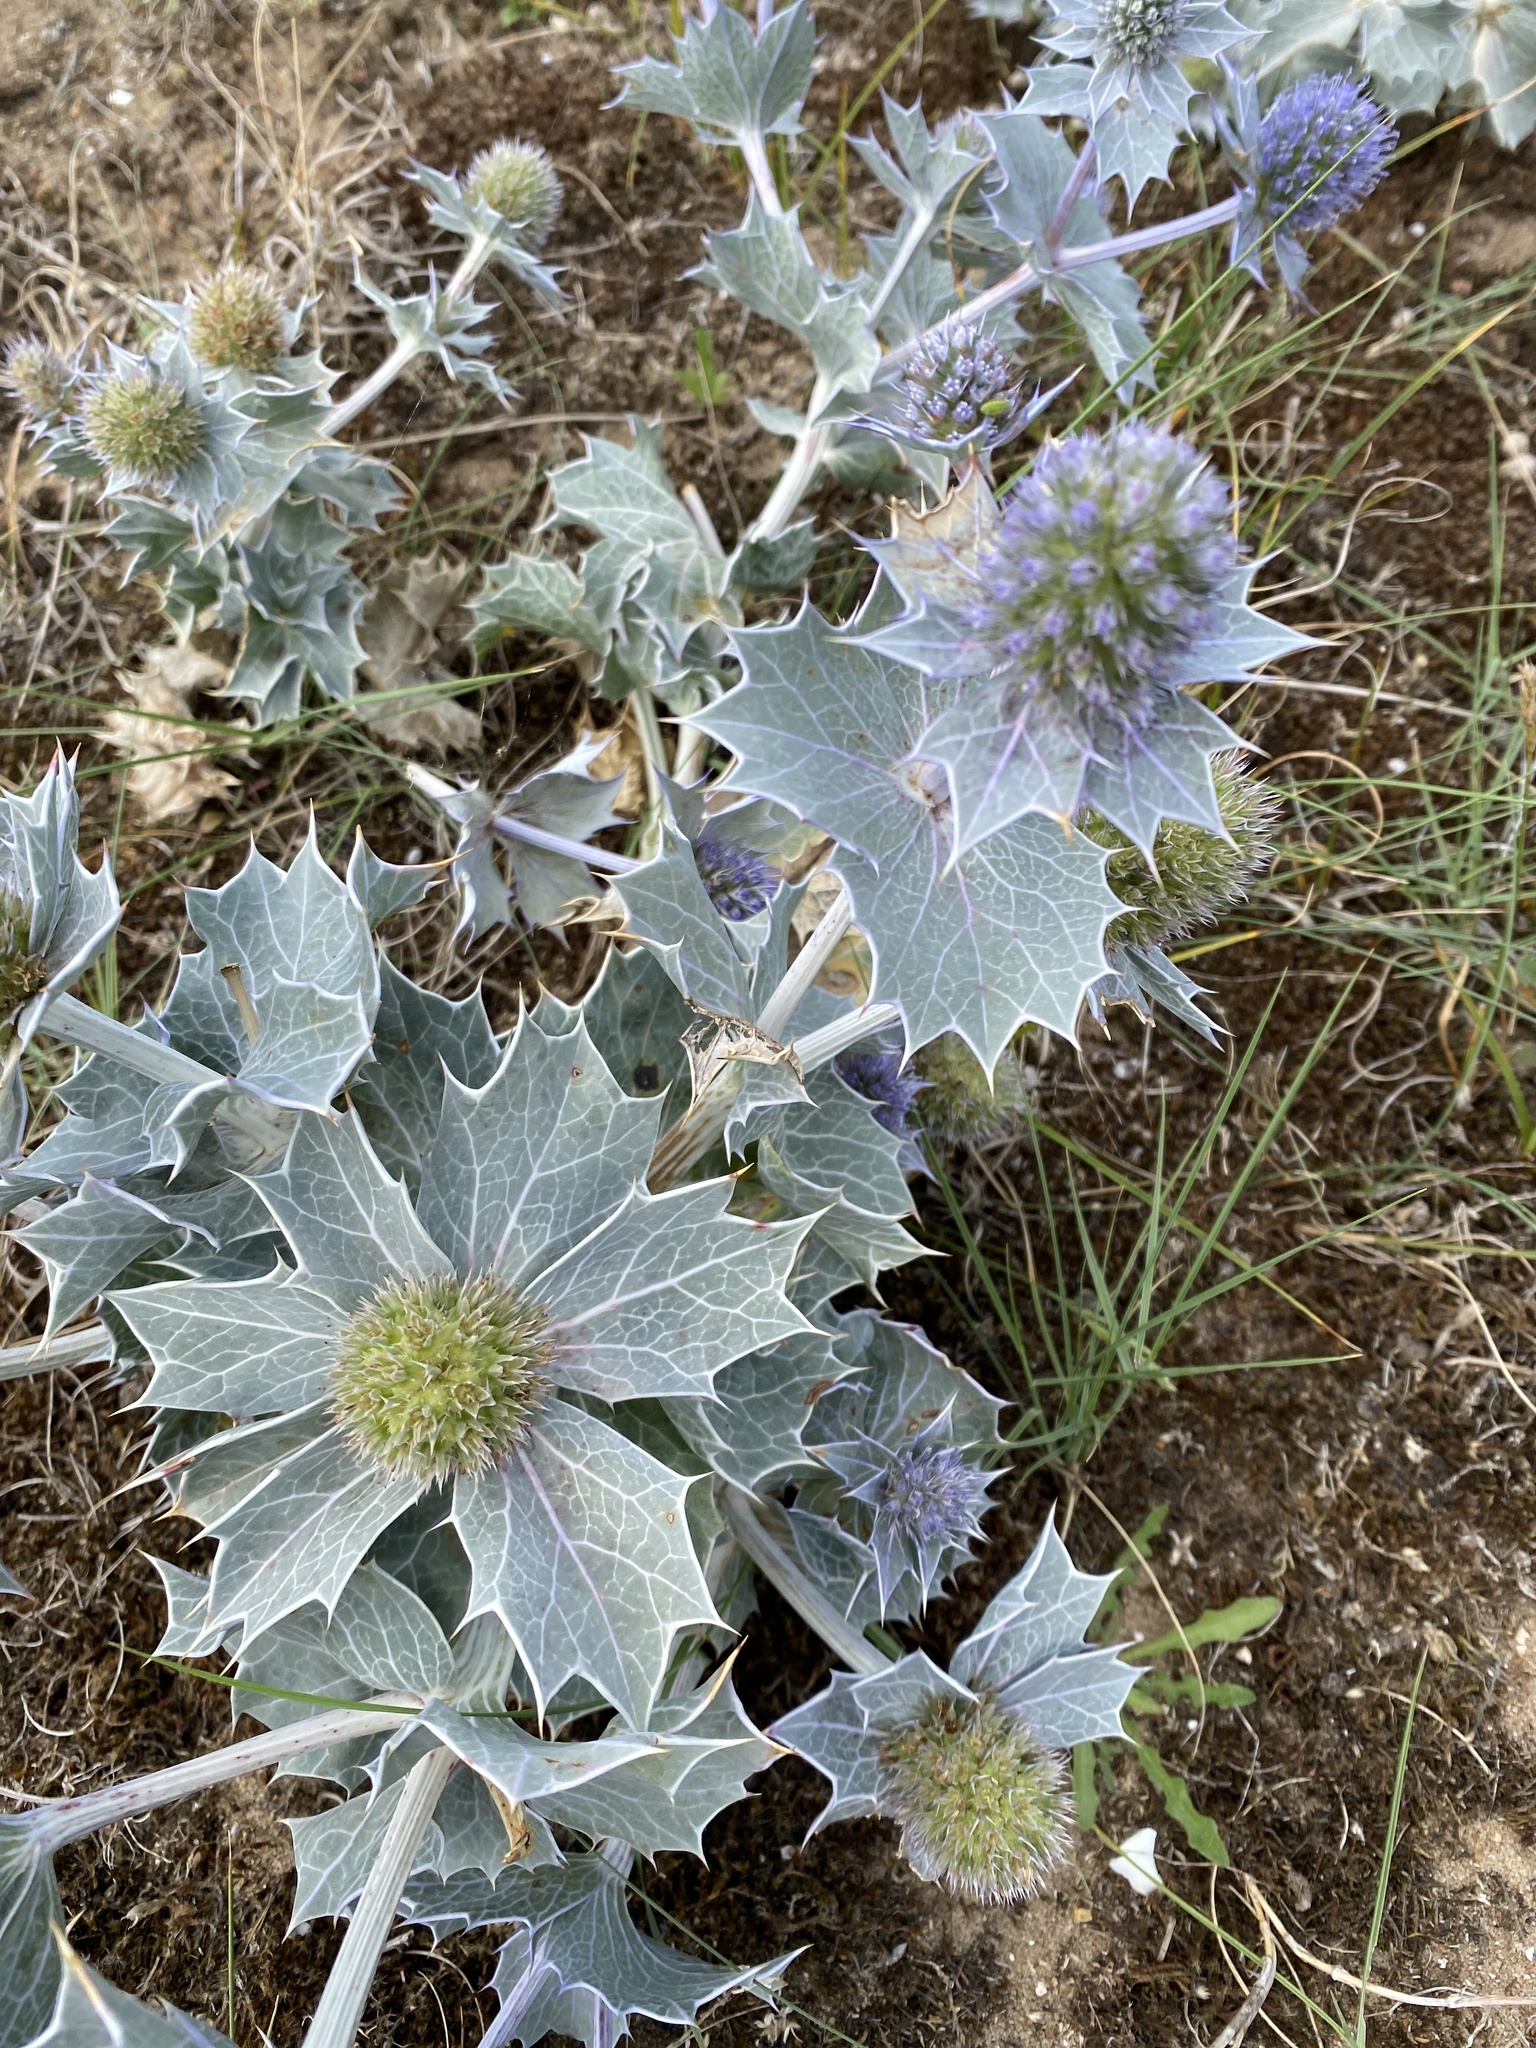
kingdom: Plantae
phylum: Tracheophyta
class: Magnoliopsida
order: Apiales
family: Apiaceae
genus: Eryngium
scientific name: Eryngium maritimum
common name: Sea-holly
